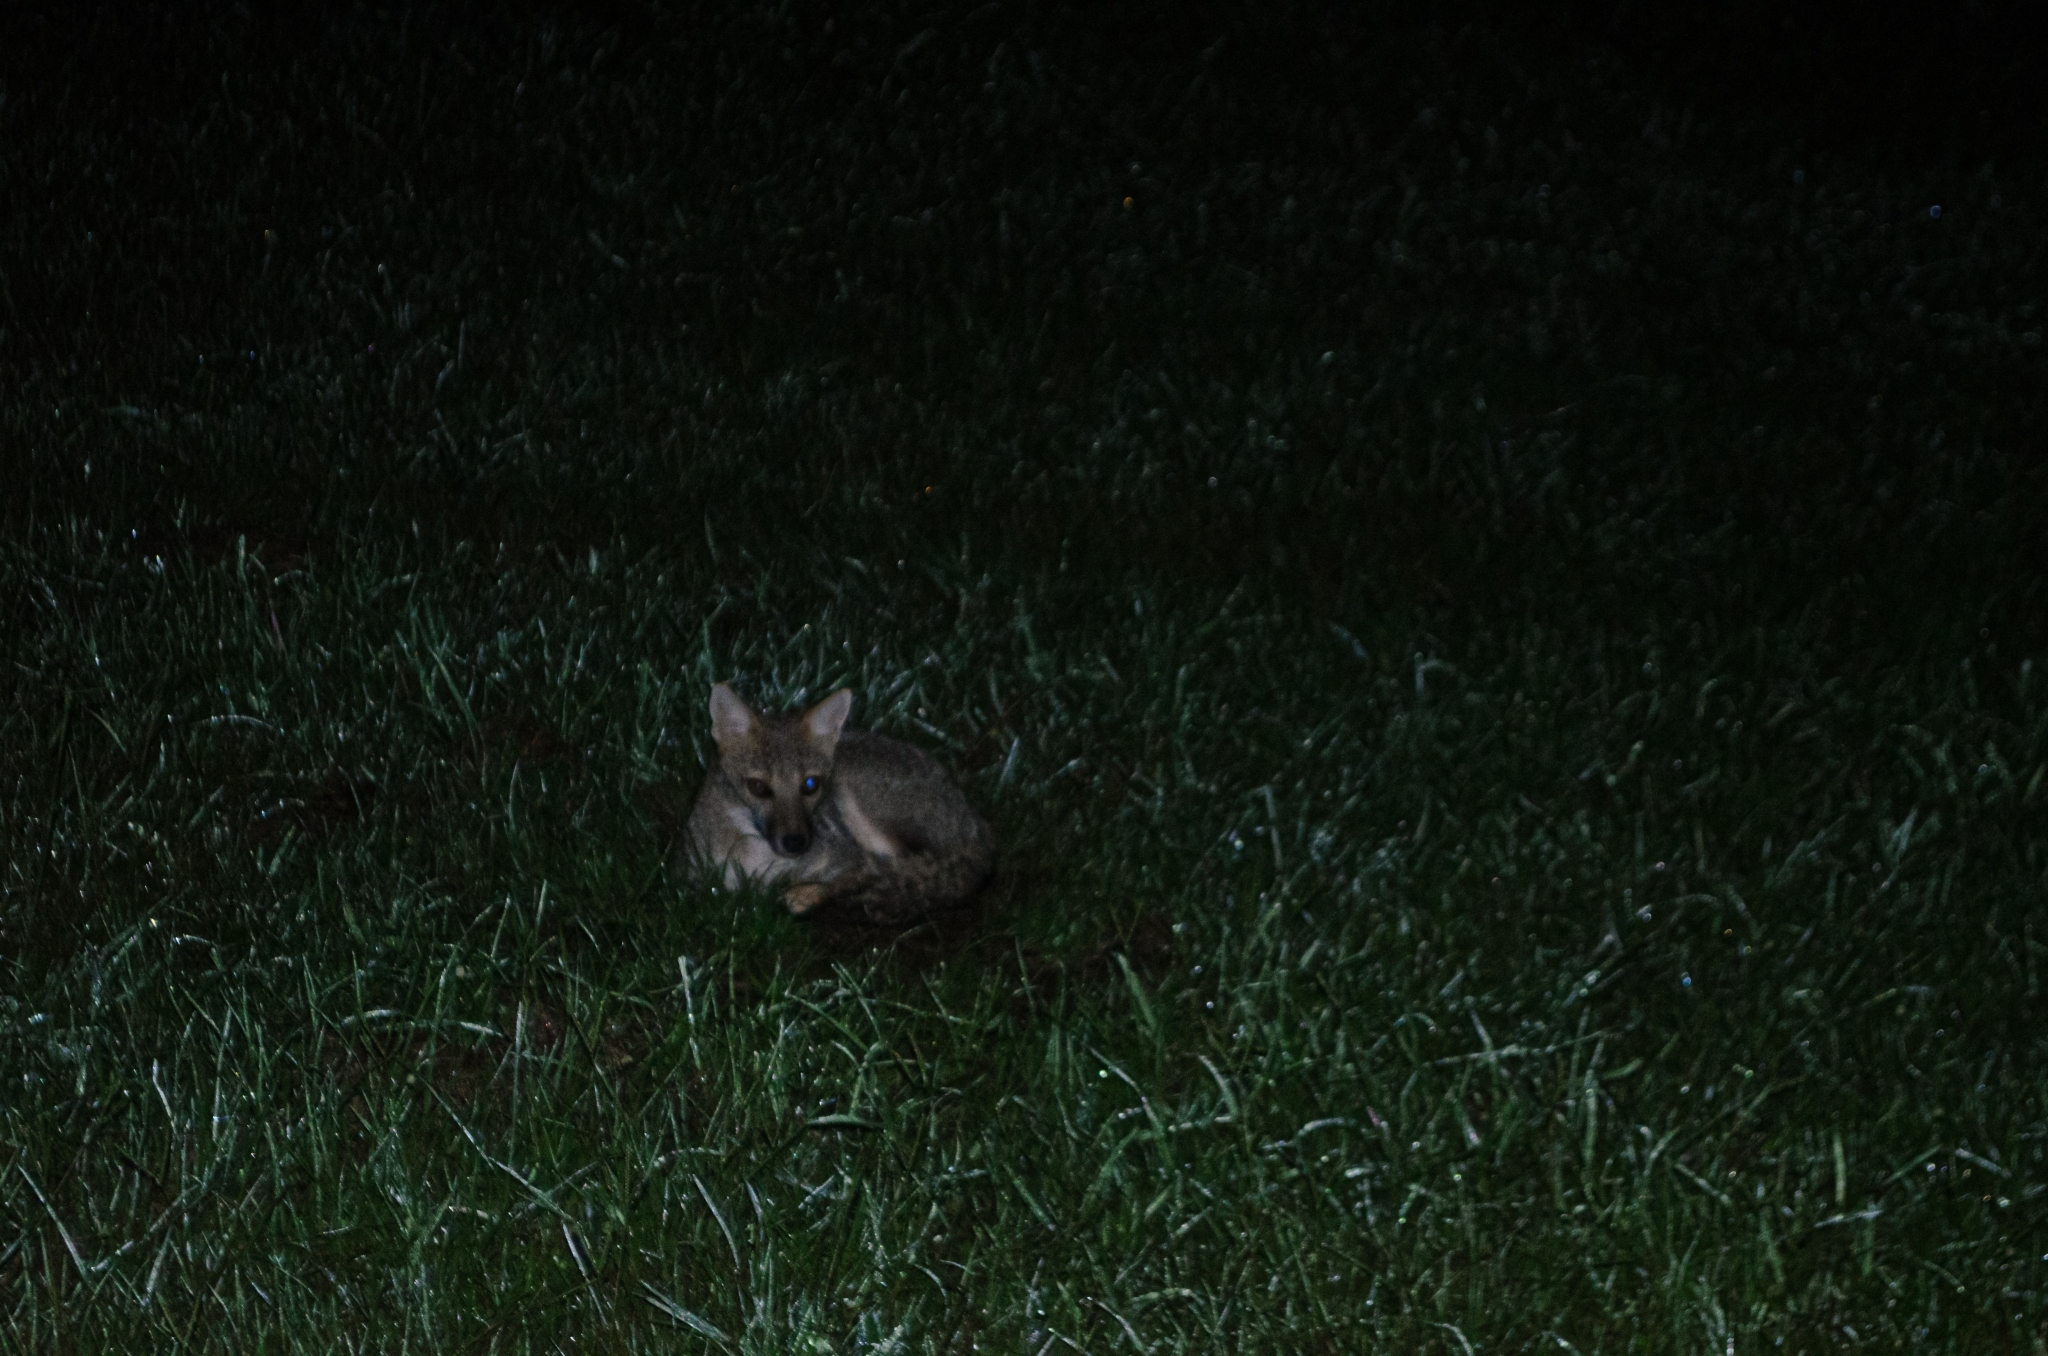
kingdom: Animalia
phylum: Chordata
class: Mammalia
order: Carnivora
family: Canidae
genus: Lycalopex
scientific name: Lycalopex gymnocercus
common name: Pampas fox
